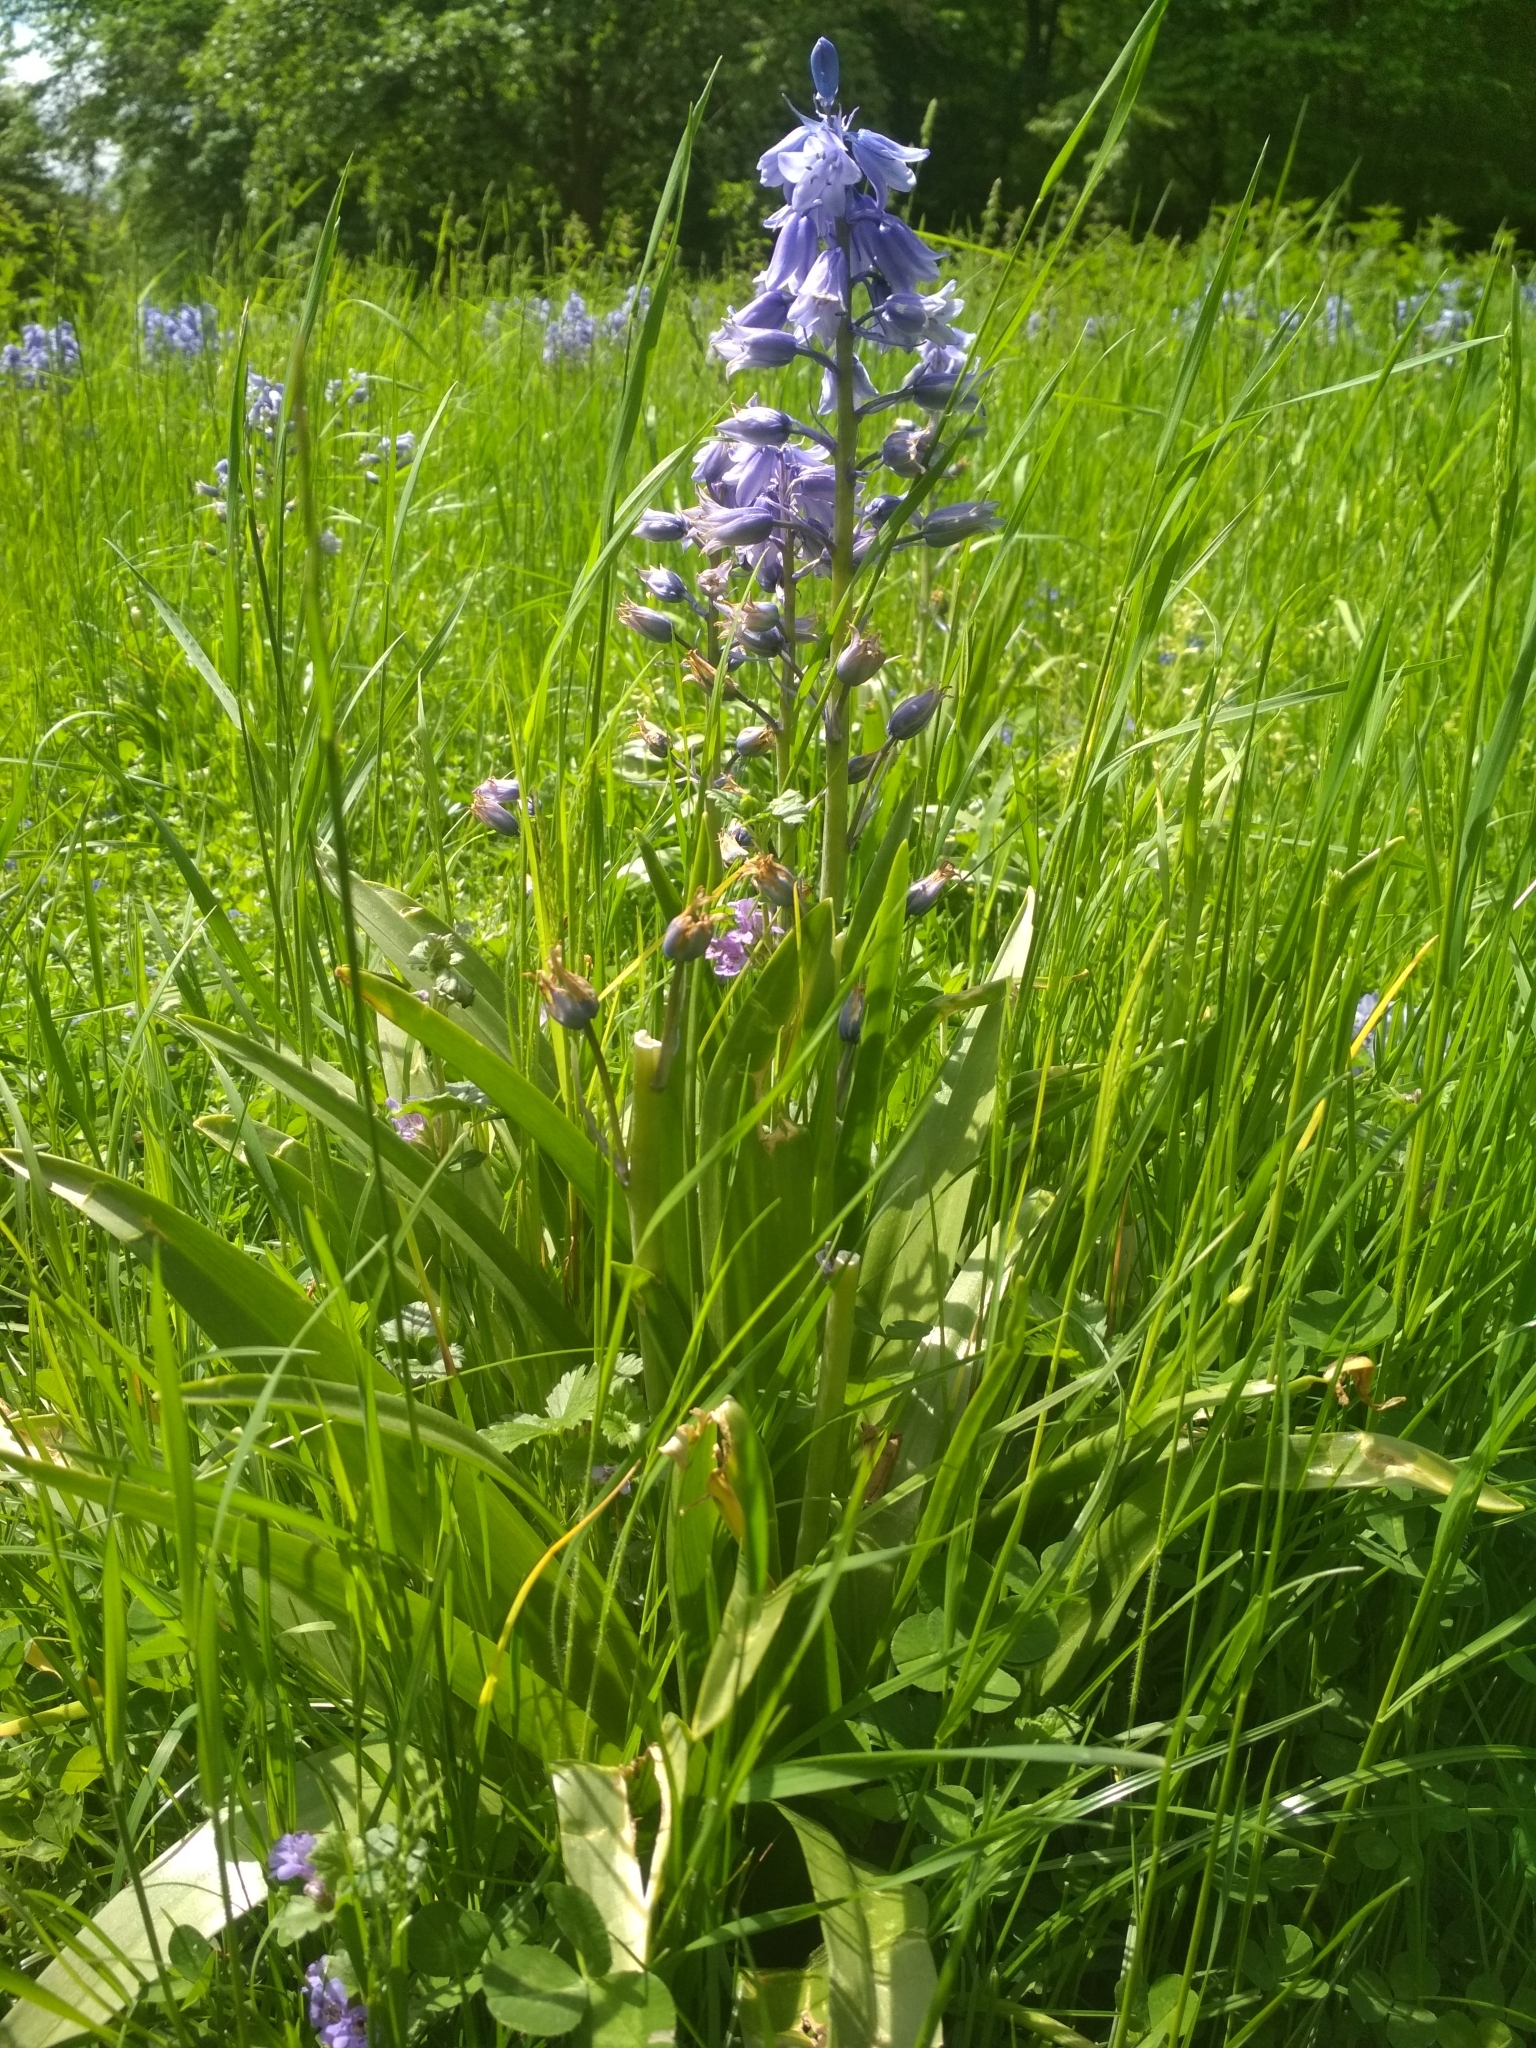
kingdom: Plantae
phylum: Tracheophyta
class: Liliopsida
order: Asparagales
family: Asparagaceae
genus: Hyacinthoides
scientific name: Hyacinthoides massartiana
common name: Hyacinthoides
